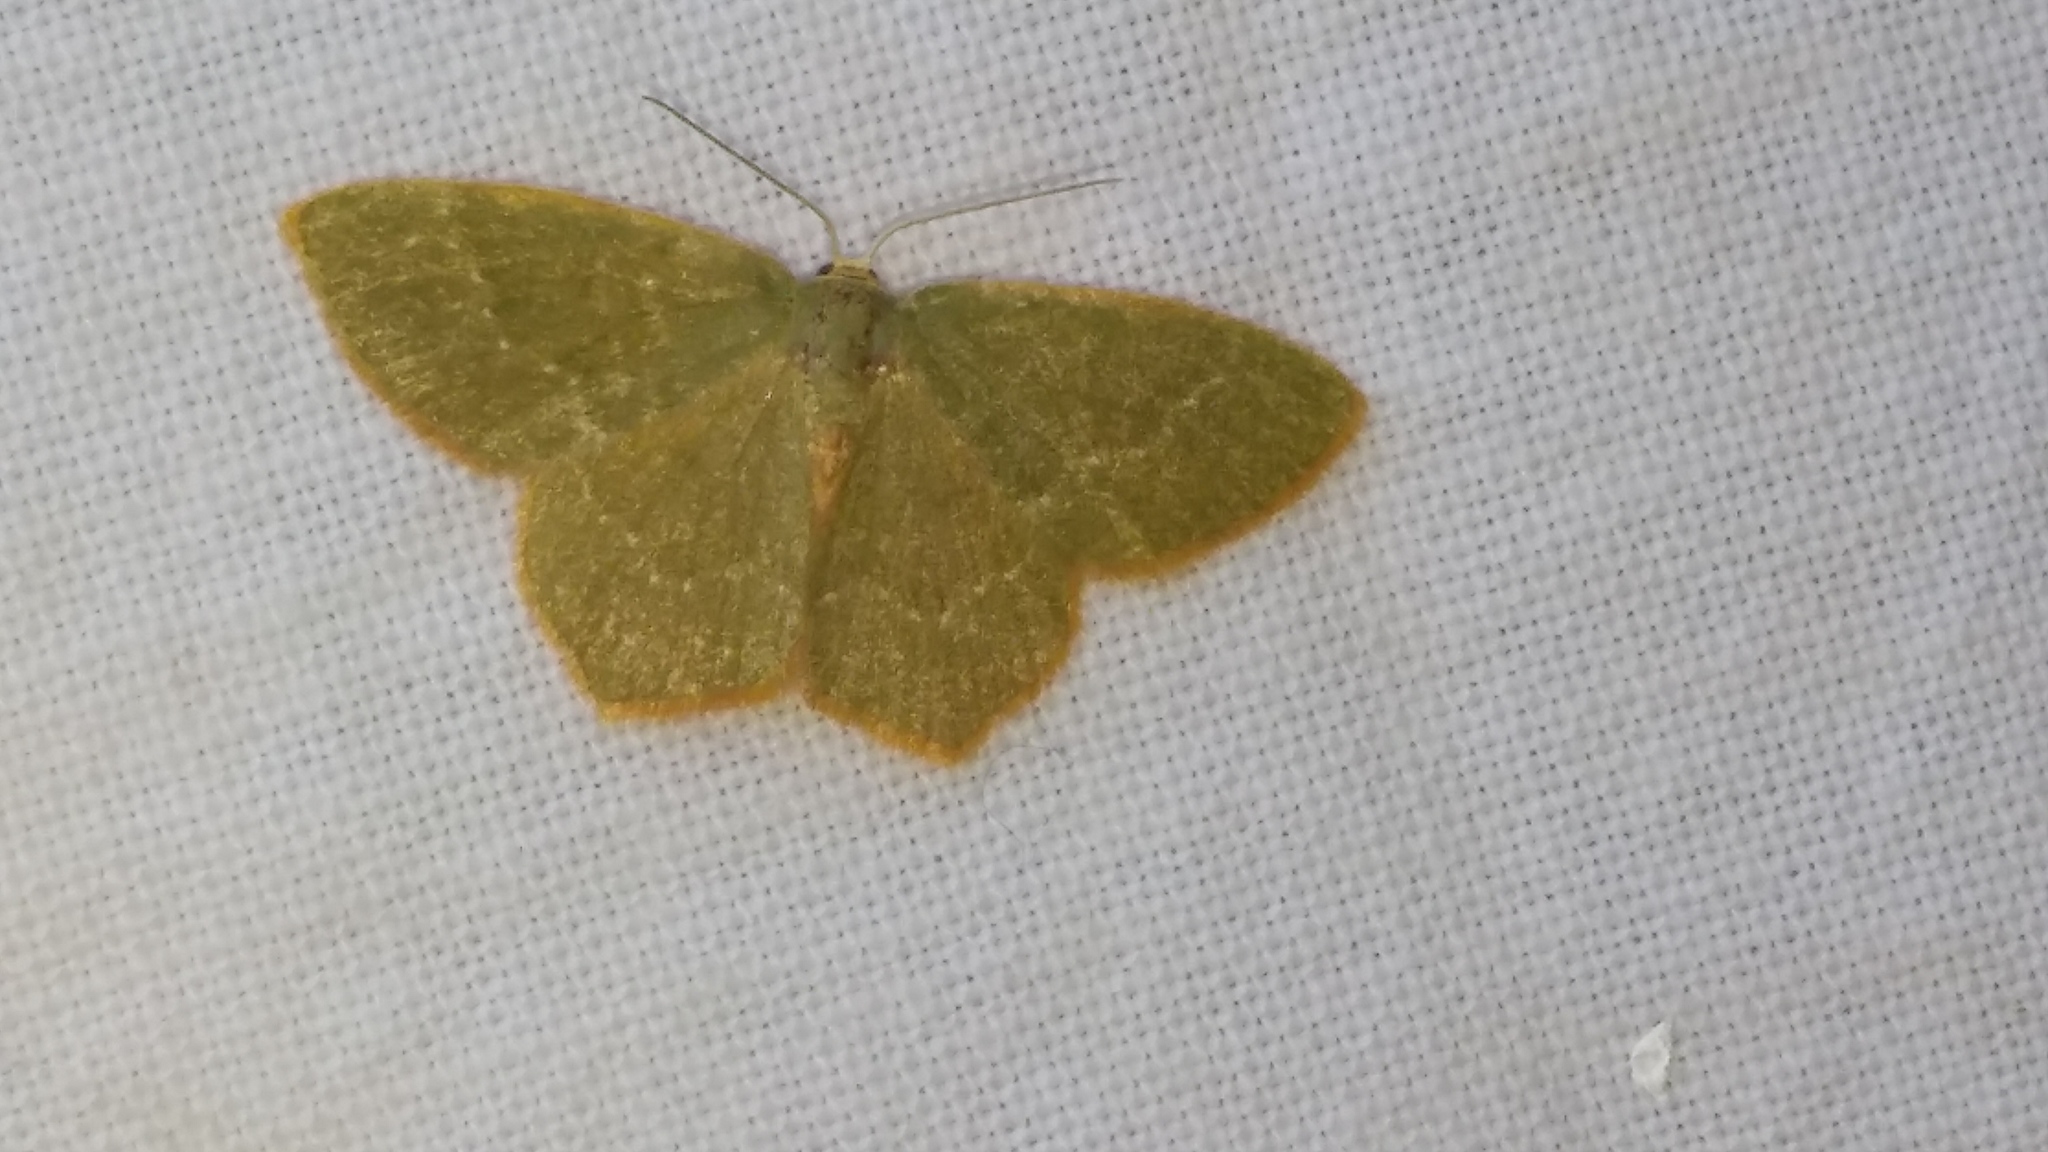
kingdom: Animalia
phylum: Arthropoda
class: Insecta
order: Lepidoptera
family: Geometridae
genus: Thalera
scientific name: Thalera pistasciaria
